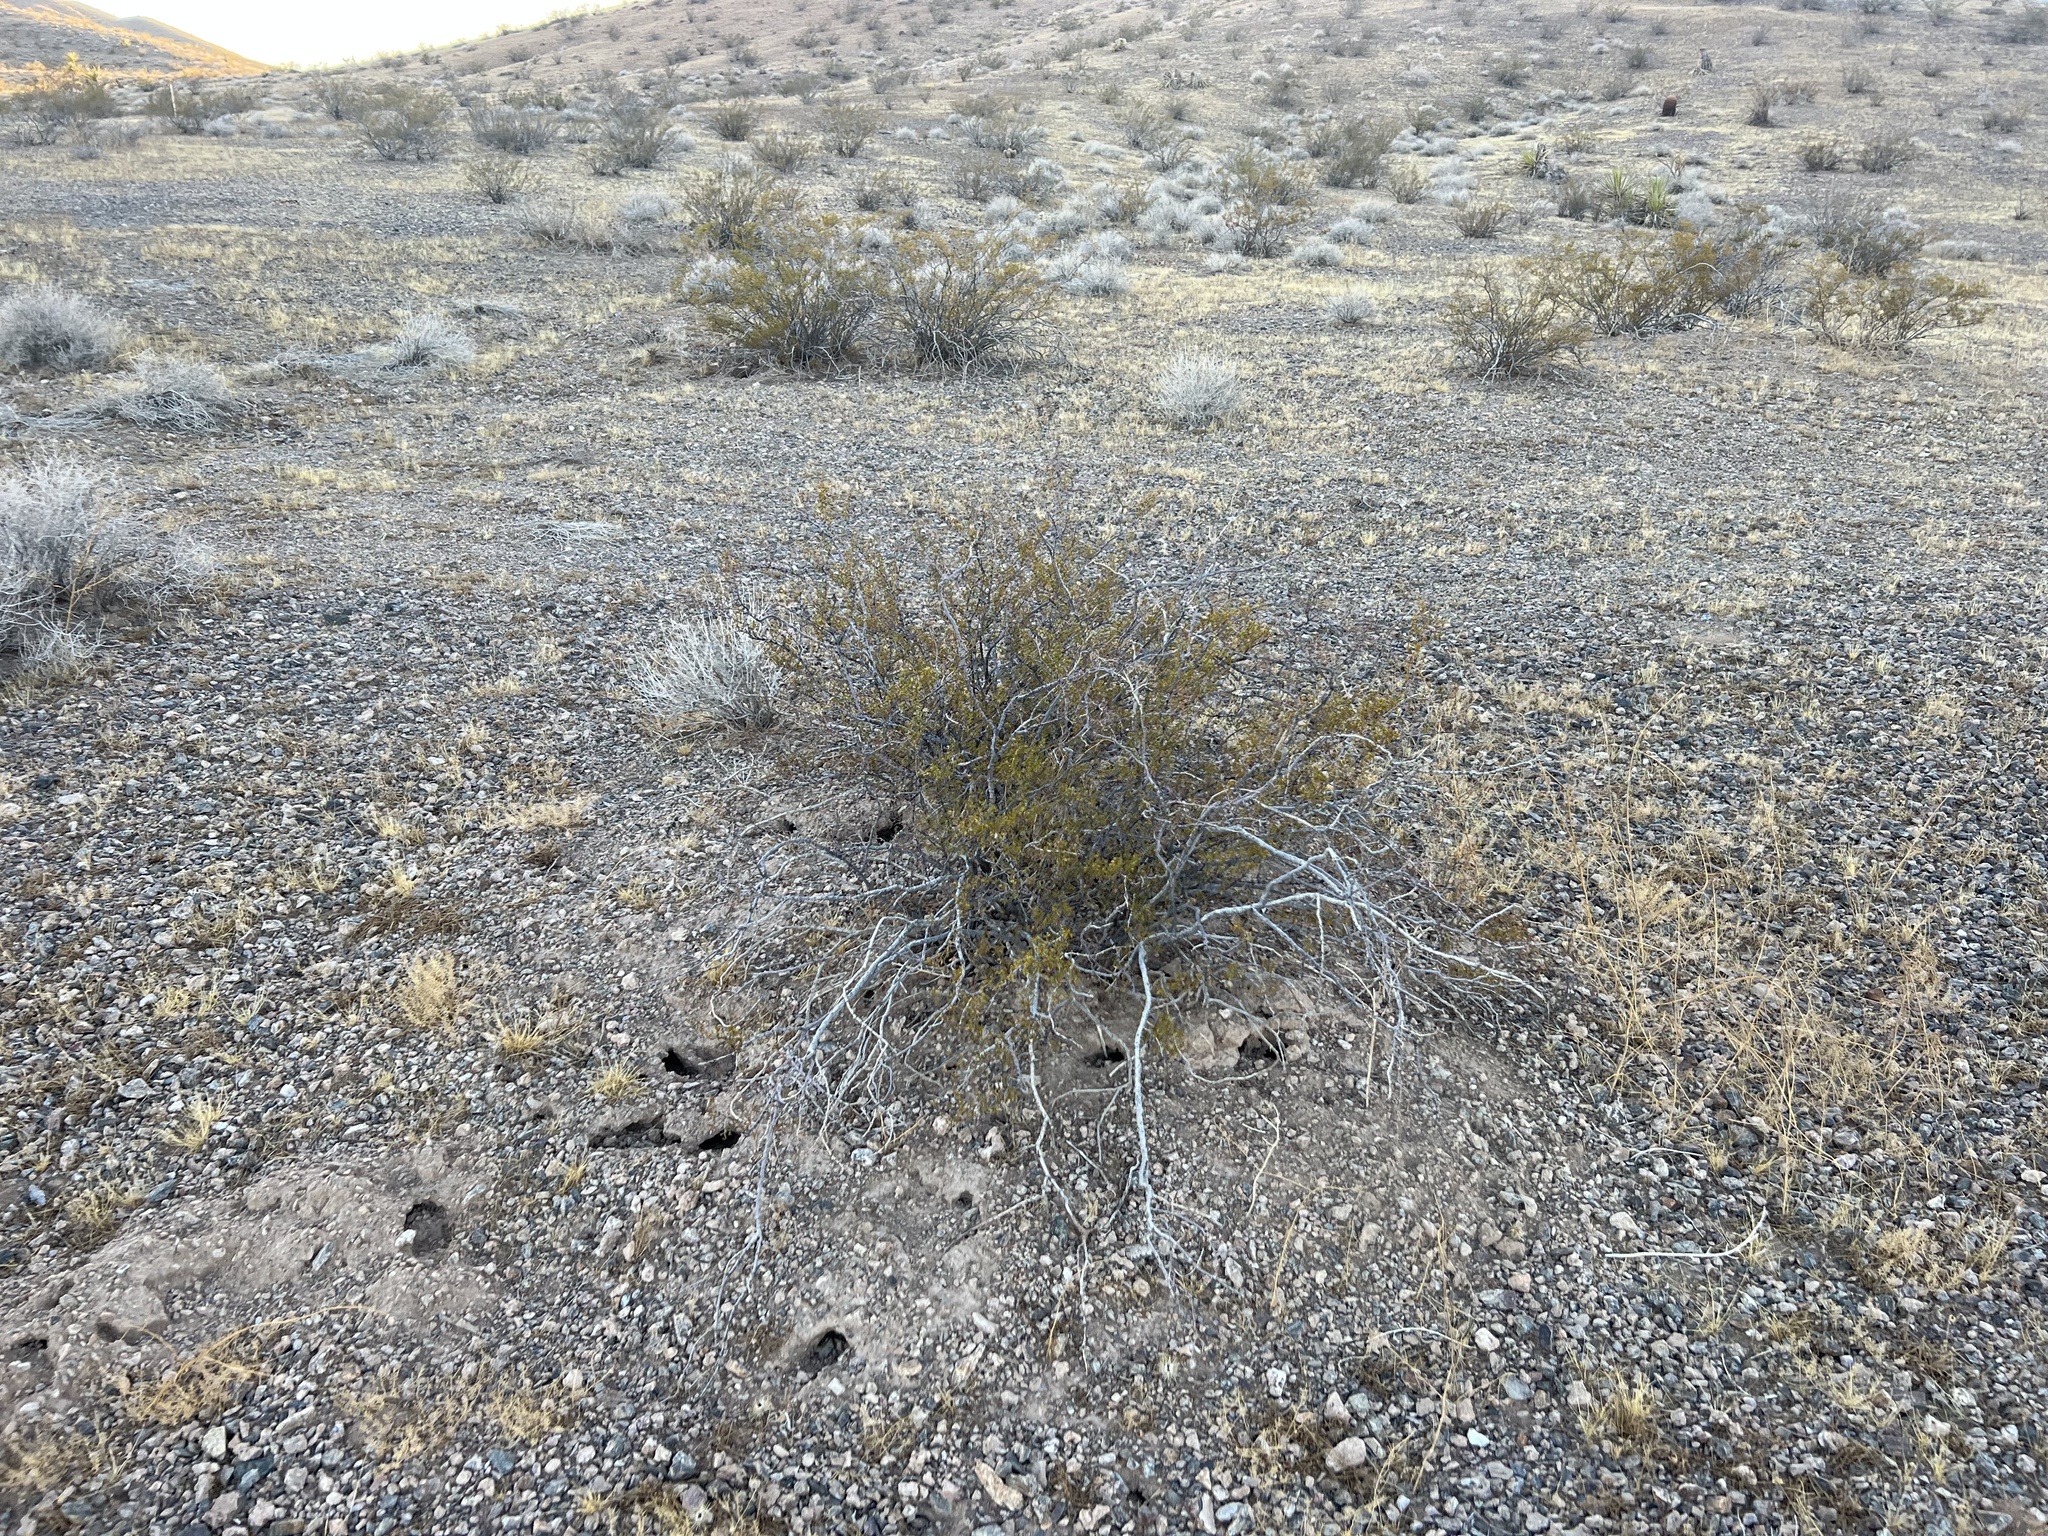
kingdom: Plantae
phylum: Tracheophyta
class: Magnoliopsida
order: Zygophyllales
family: Zygophyllaceae
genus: Larrea
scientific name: Larrea tridentata
